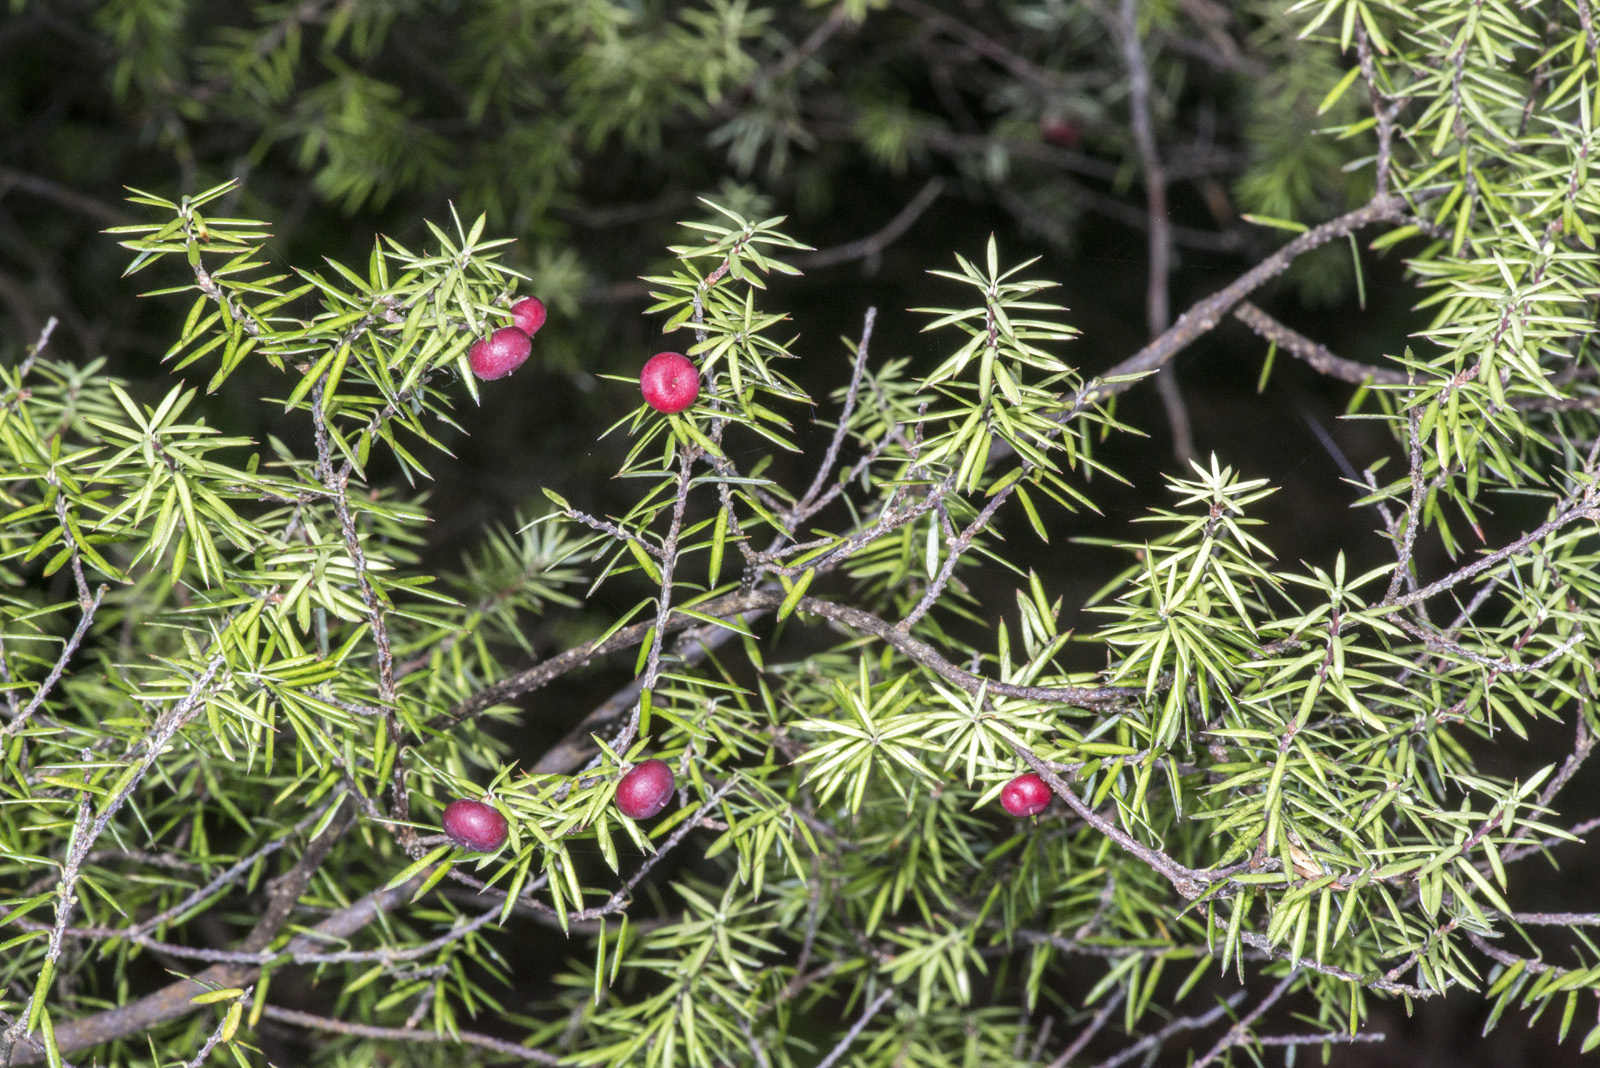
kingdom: Plantae
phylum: Tracheophyta
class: Magnoliopsida
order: Ericales
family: Ericaceae
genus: Leptecophylla
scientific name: Leptecophylla juniperina
